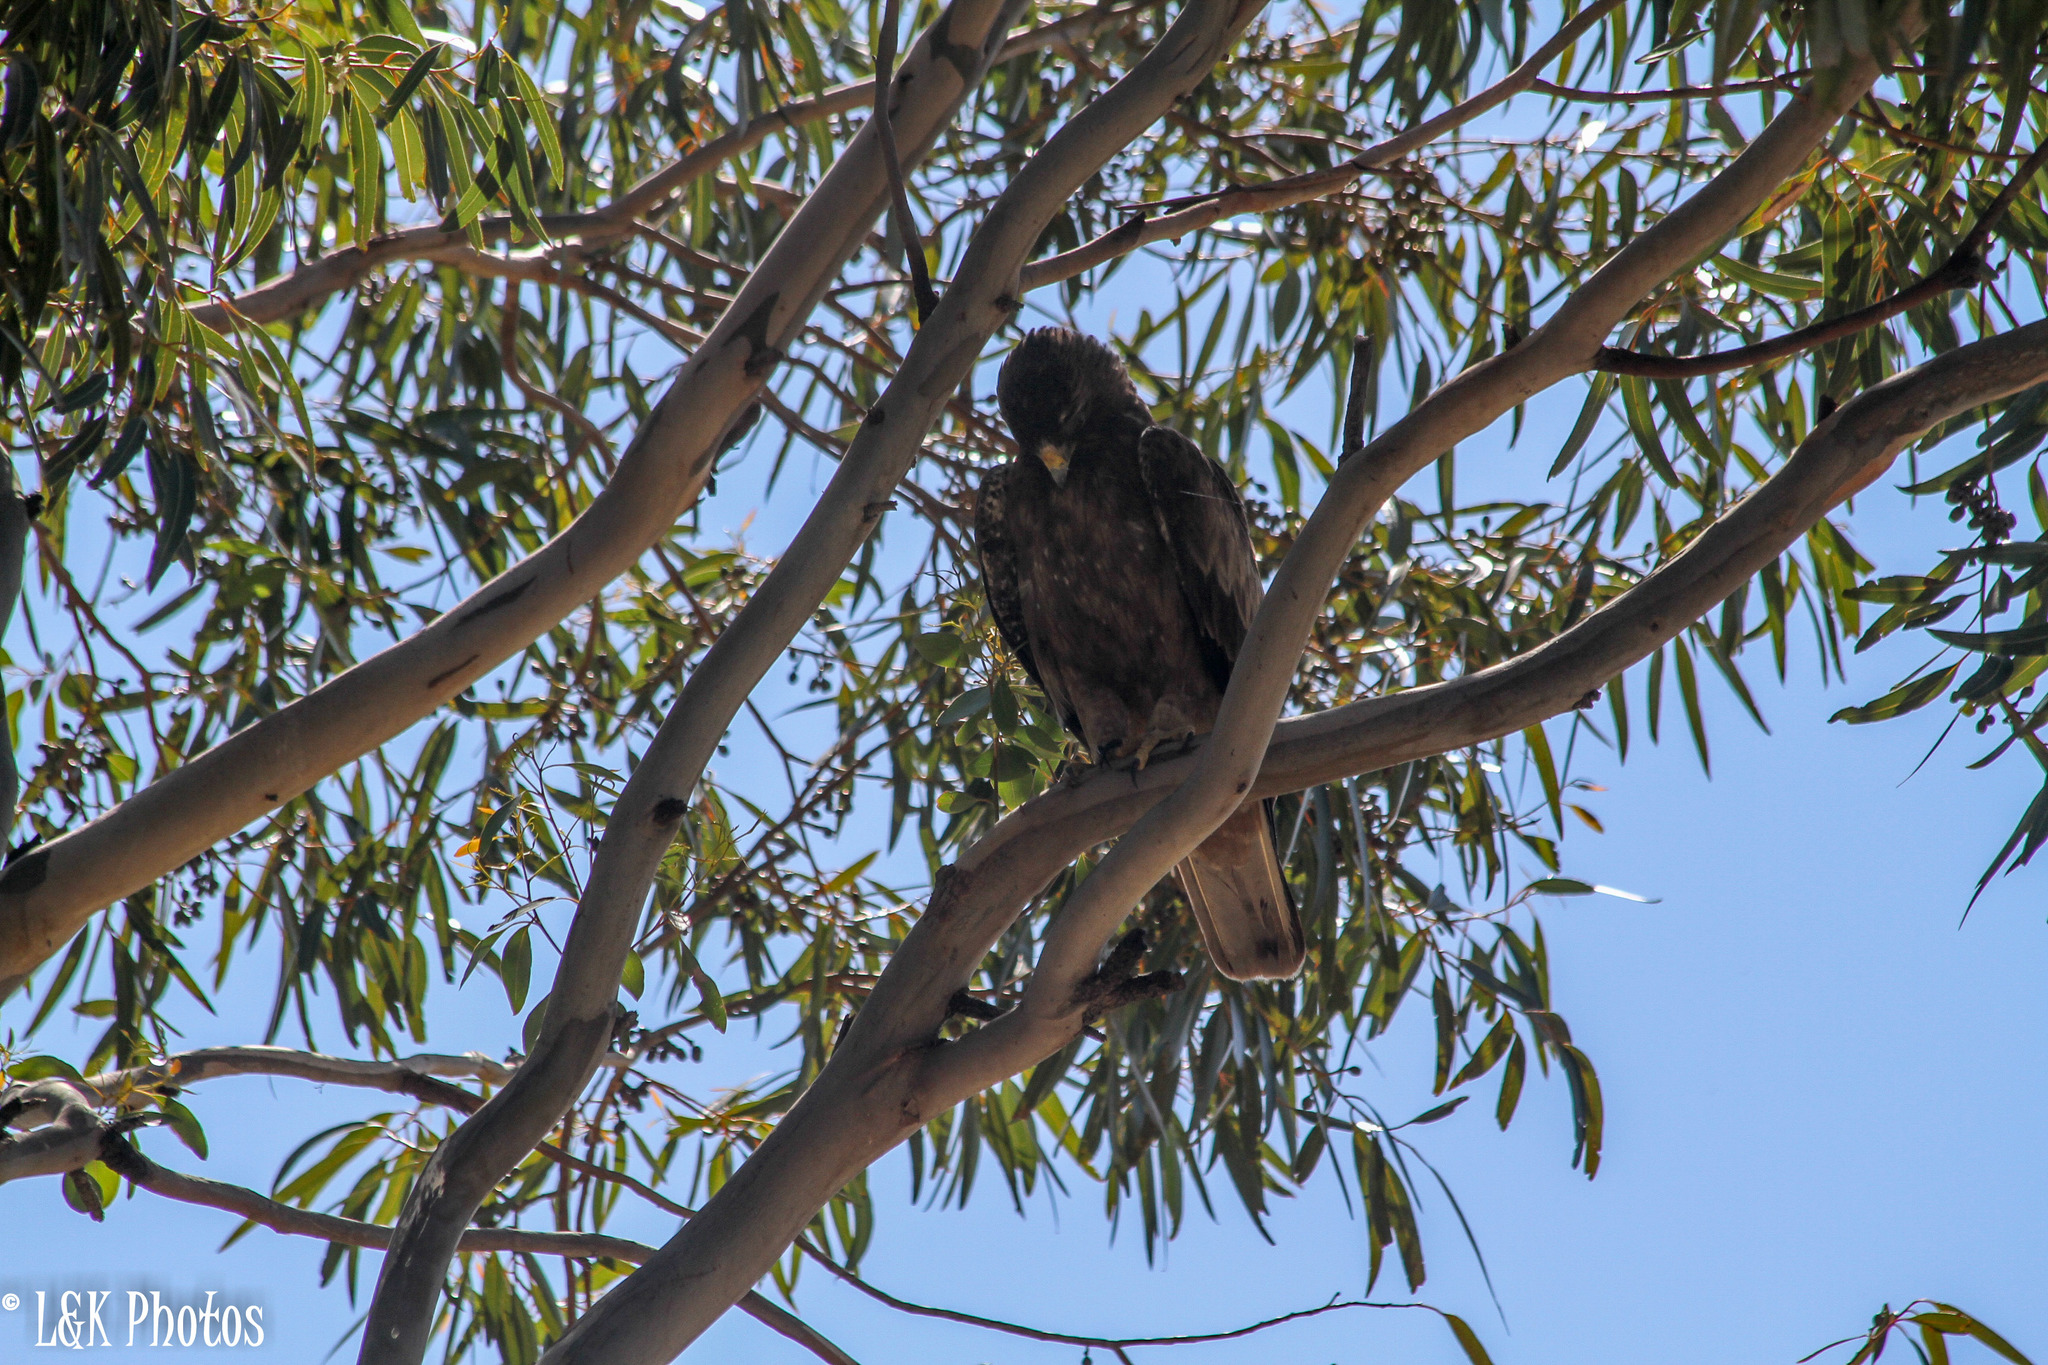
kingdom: Animalia
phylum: Chordata
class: Aves
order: Accipitriformes
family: Accipitridae
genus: Hieraaetus
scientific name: Hieraaetus pennatus
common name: Booted eagle
